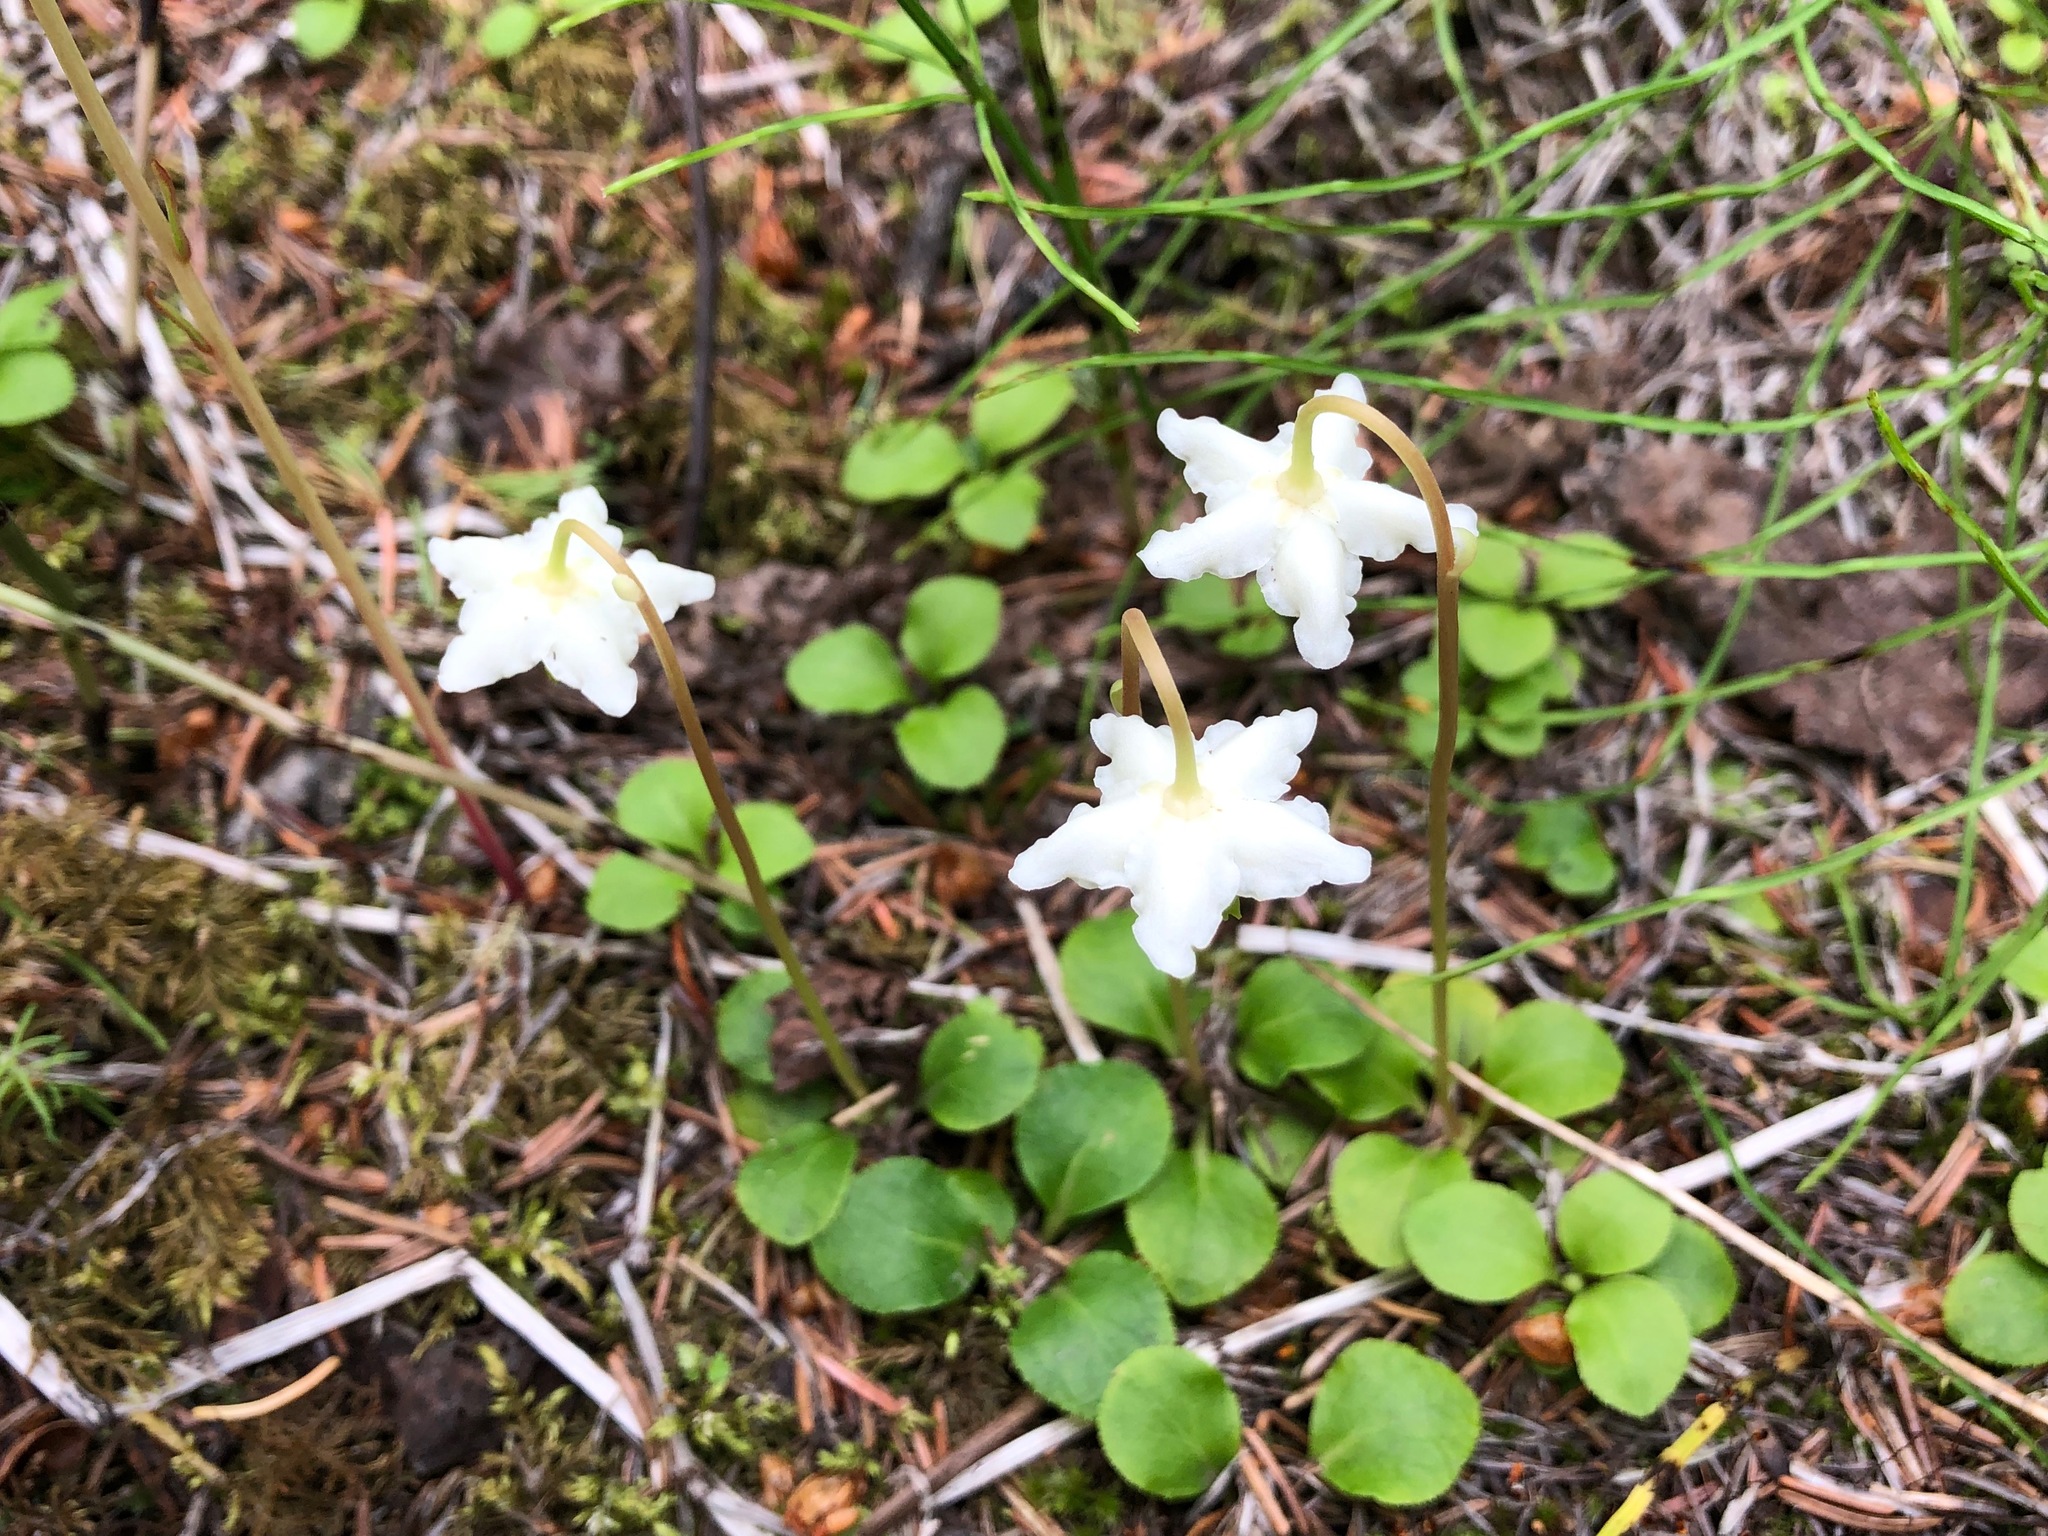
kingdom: Plantae
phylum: Tracheophyta
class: Magnoliopsida
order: Ericales
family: Ericaceae
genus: Moneses
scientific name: Moneses uniflora
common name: One-flowered wintergreen
